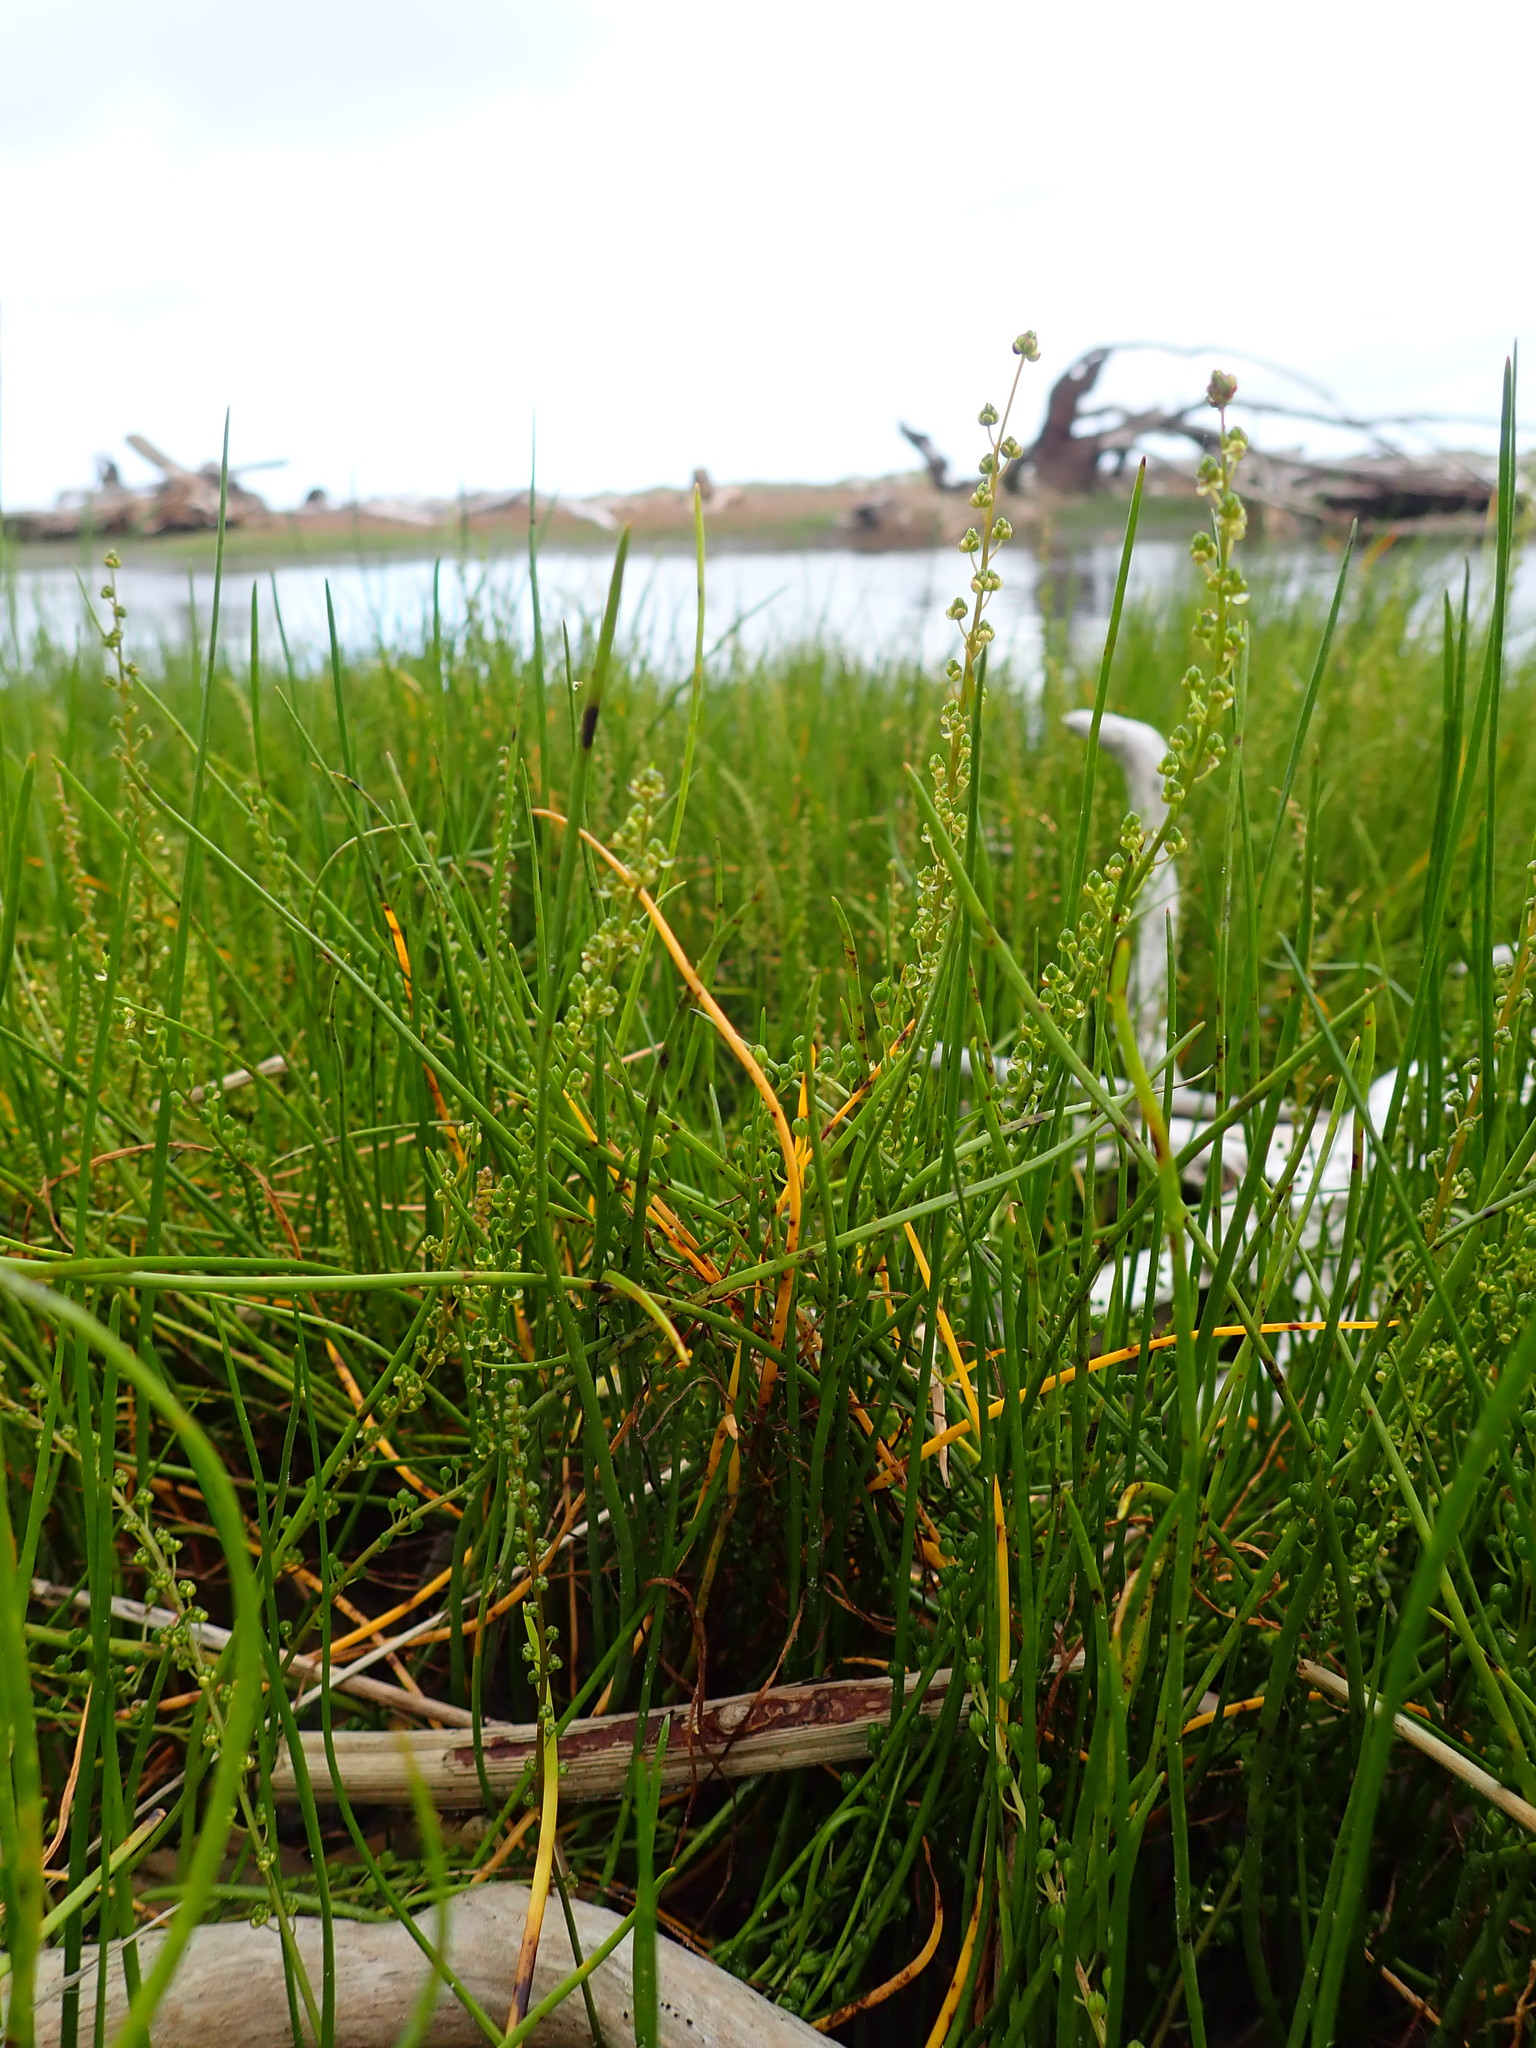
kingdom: Plantae
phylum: Tracheophyta
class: Liliopsida
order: Alismatales
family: Juncaginaceae
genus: Triglochin
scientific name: Triglochin striata
